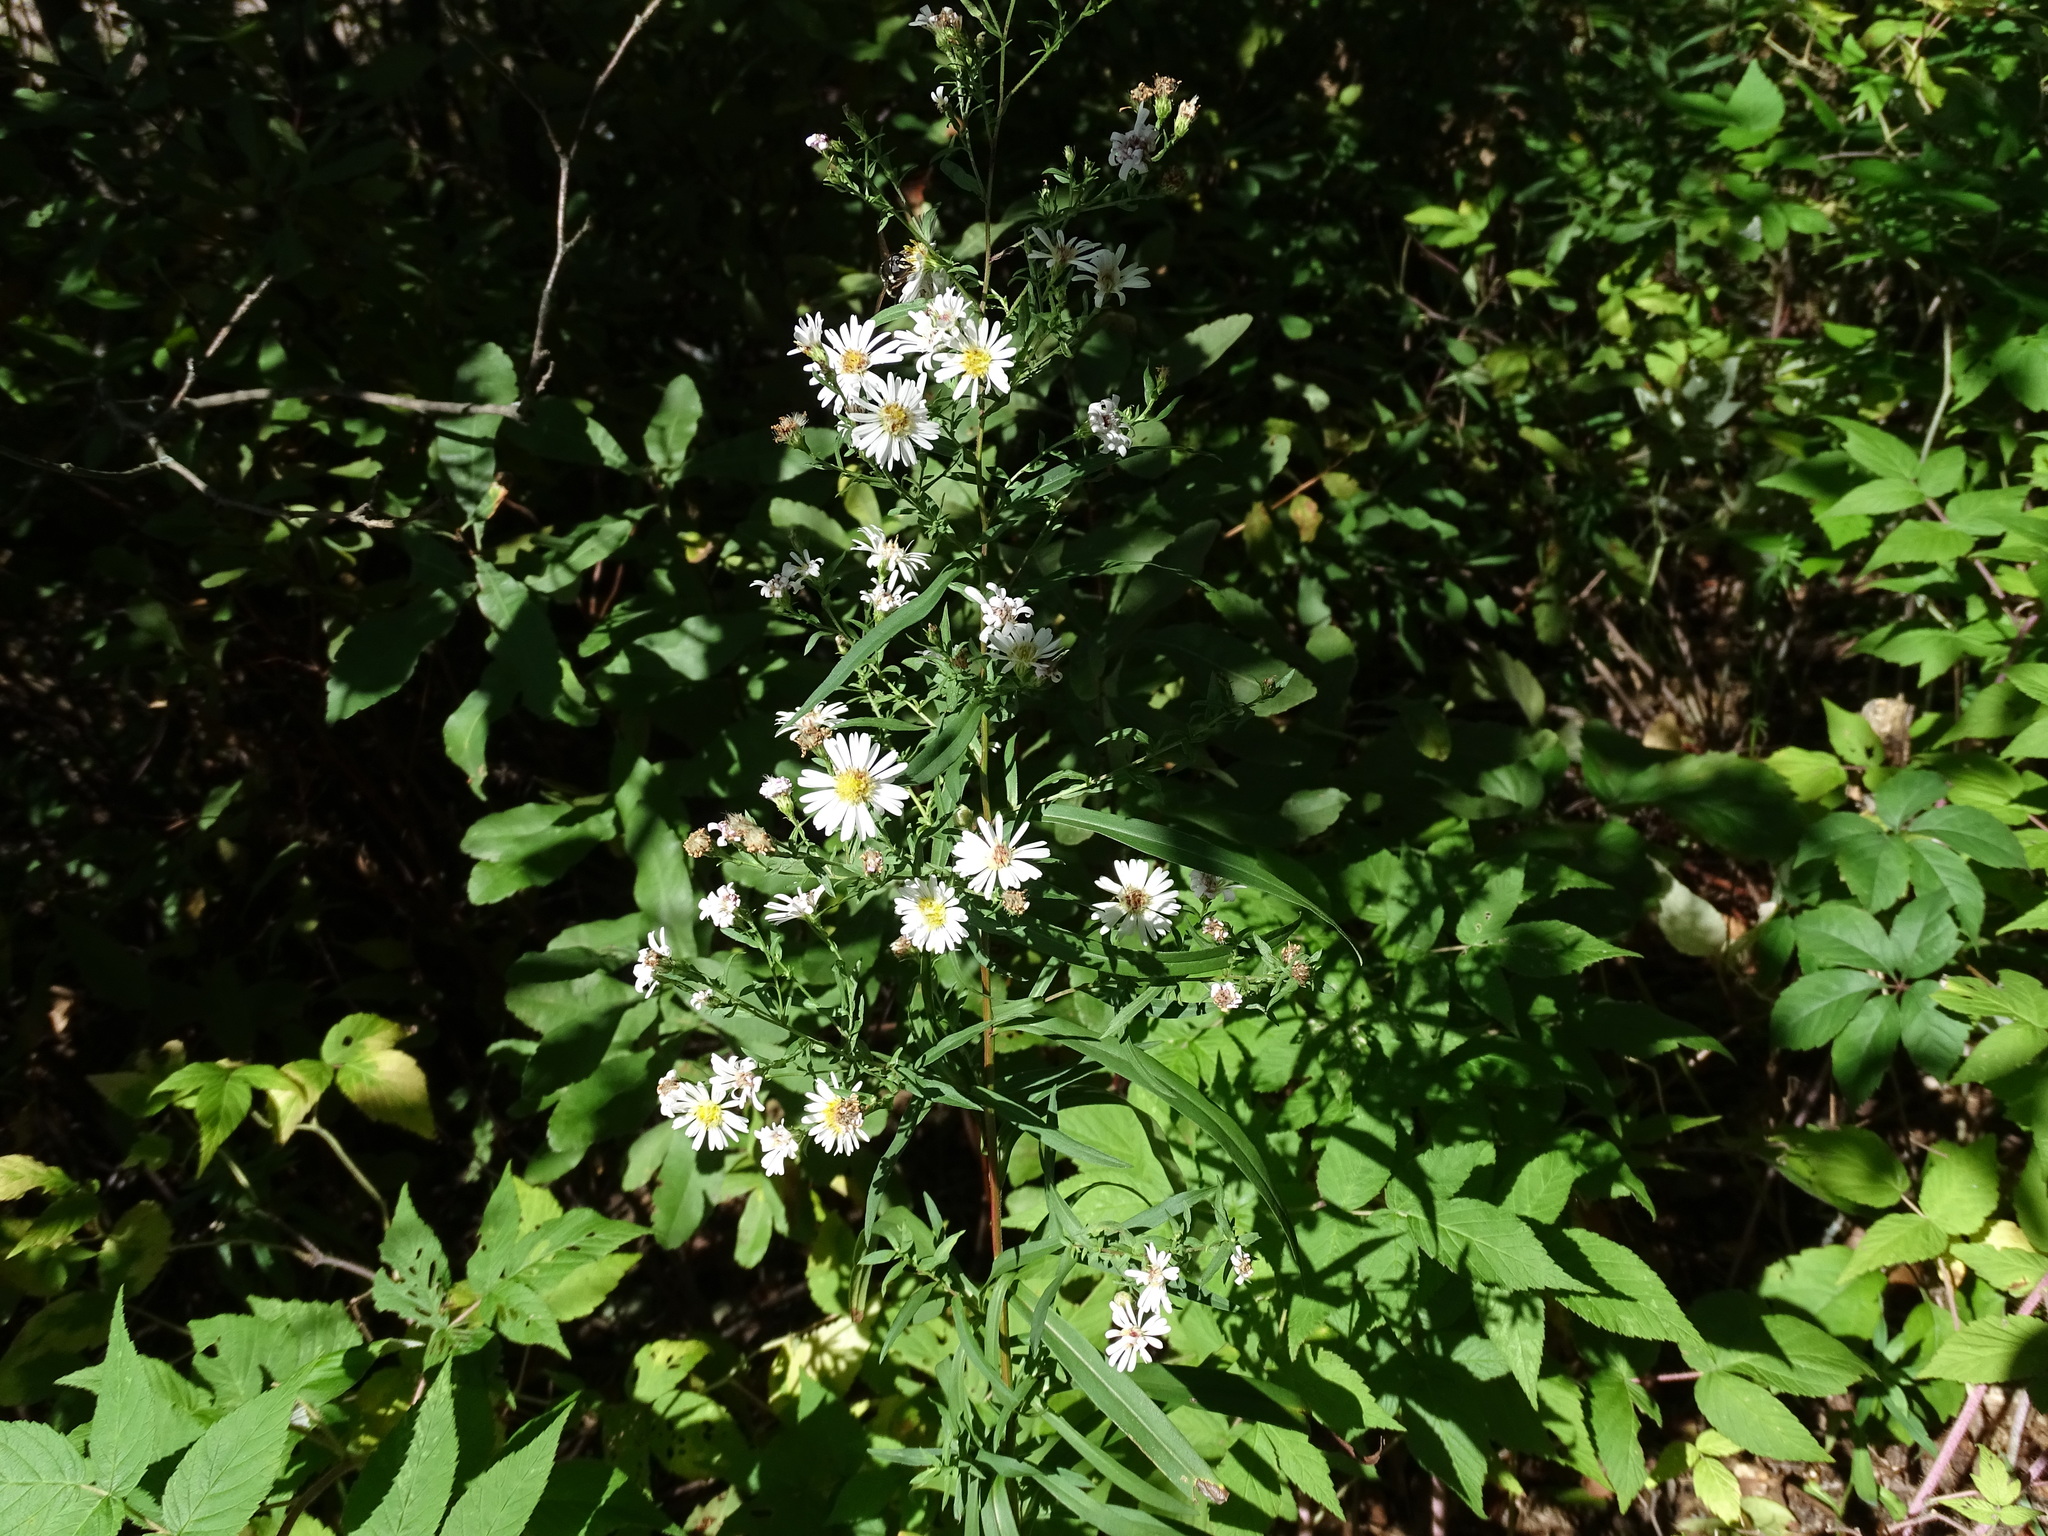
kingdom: Plantae
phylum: Tracheophyta
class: Magnoliopsida
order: Asterales
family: Asteraceae
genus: Symphyotrichum
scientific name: Symphyotrichum lanceolatum
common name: Panicled aster
